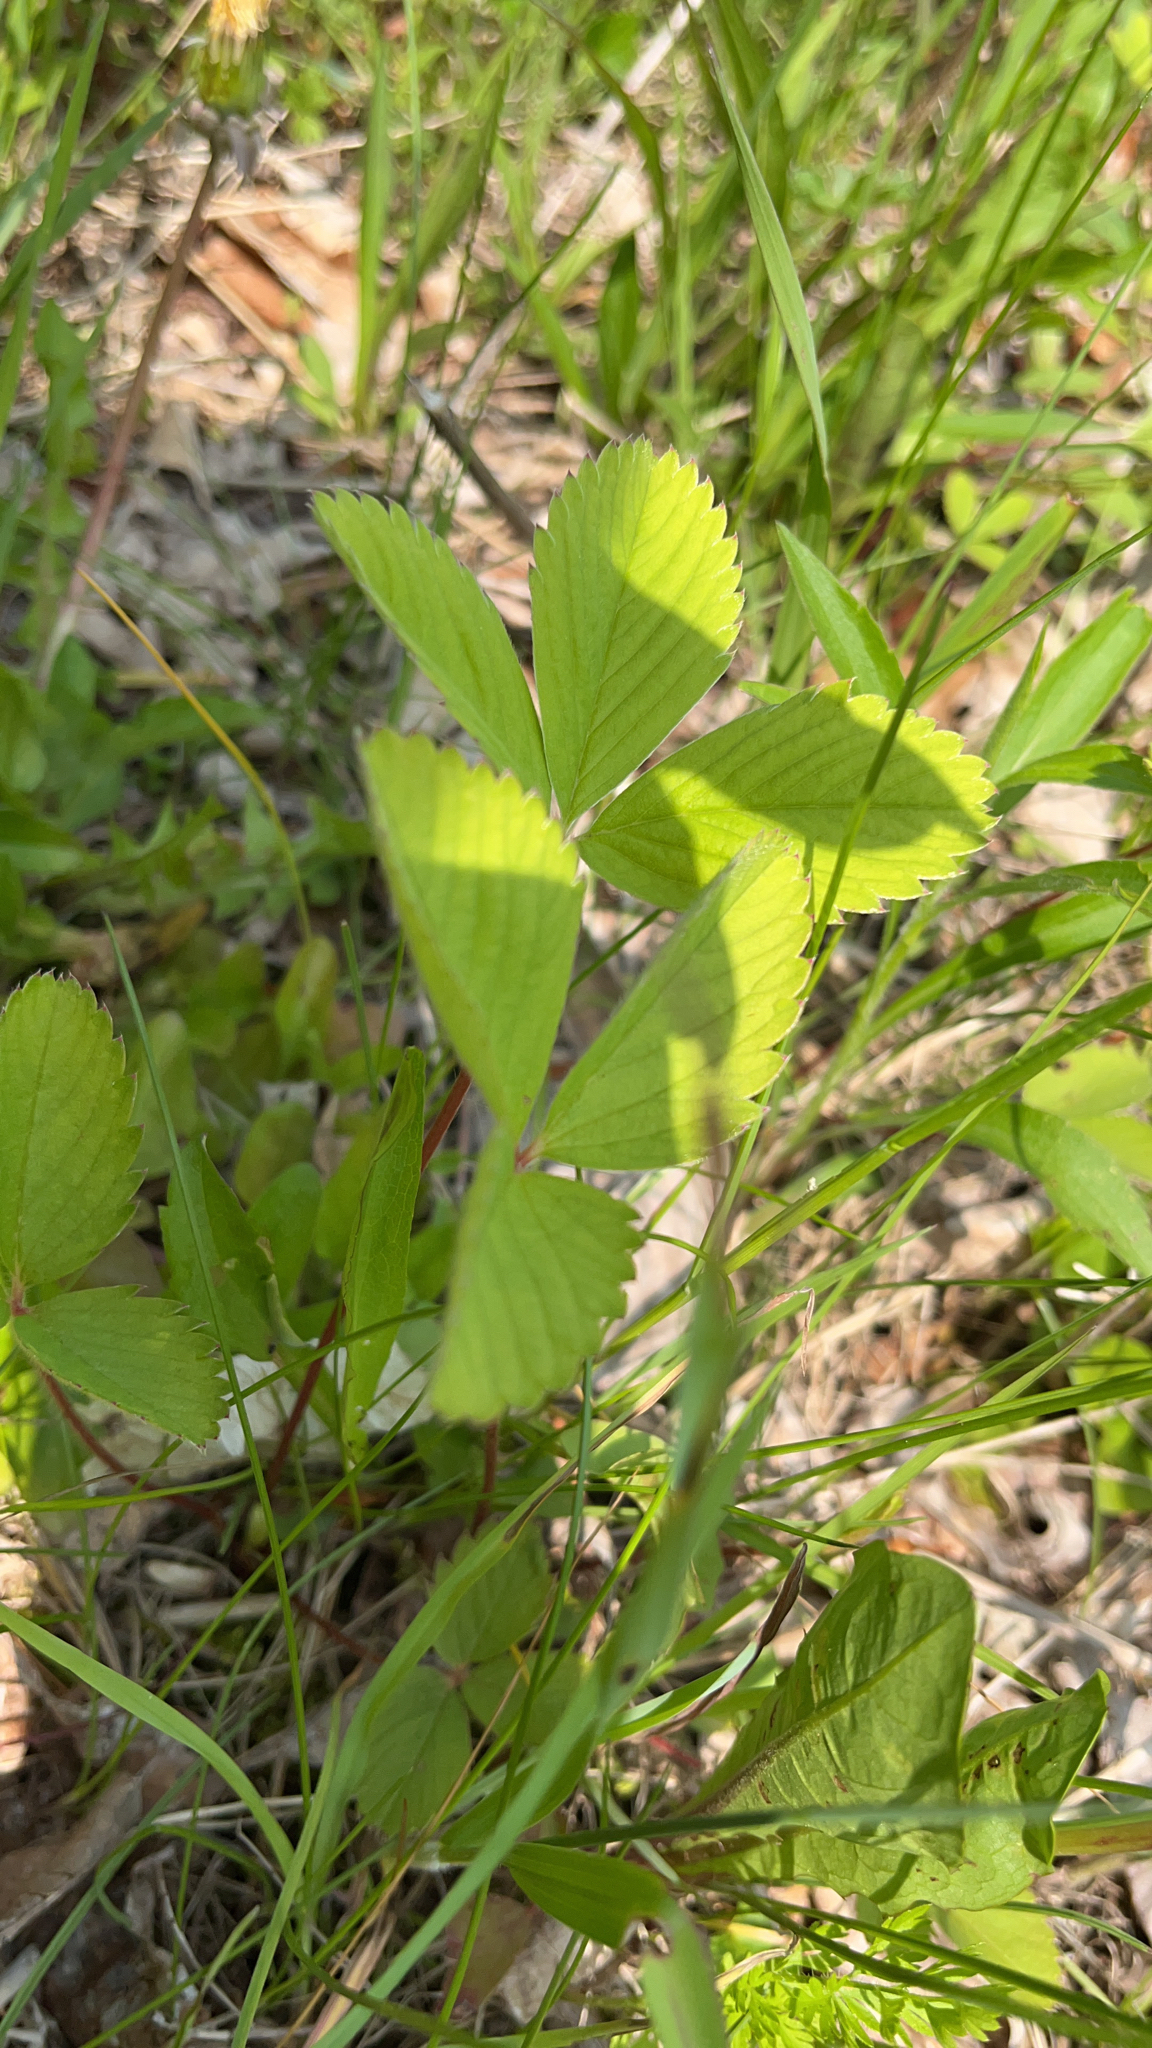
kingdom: Plantae
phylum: Tracheophyta
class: Magnoliopsida
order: Rosales
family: Rosaceae
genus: Fragaria
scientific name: Fragaria virginiana
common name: Thickleaved wild strawberry
